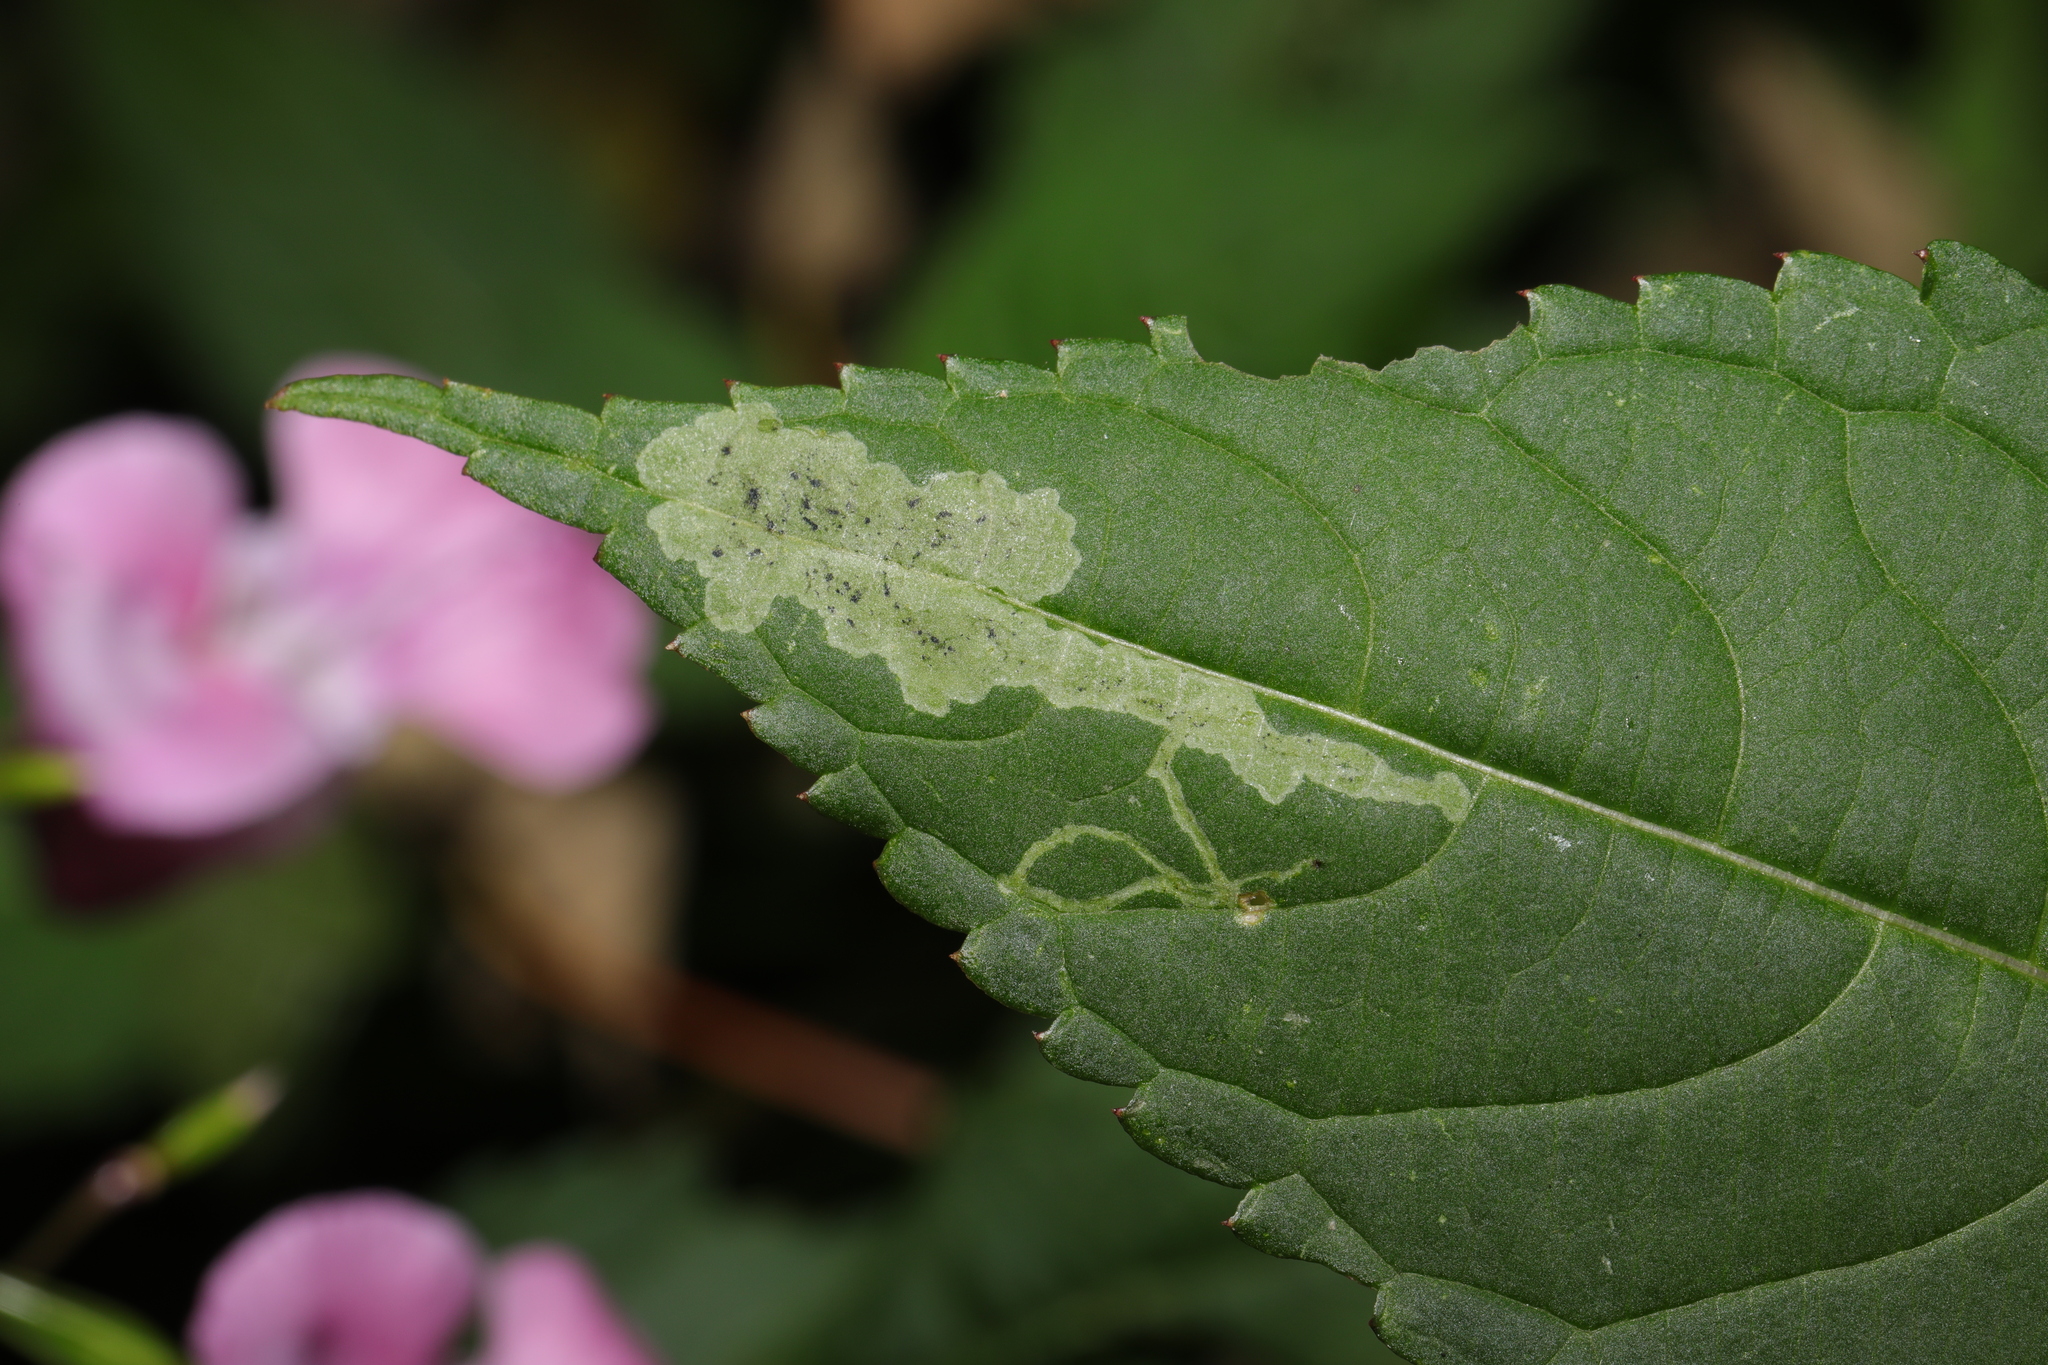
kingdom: Animalia
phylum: Arthropoda
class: Insecta
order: Diptera
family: Agromyzidae
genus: Phytoliriomyza
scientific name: Phytoliriomyza melampyga
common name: Jewelweed leaf-miner fly
